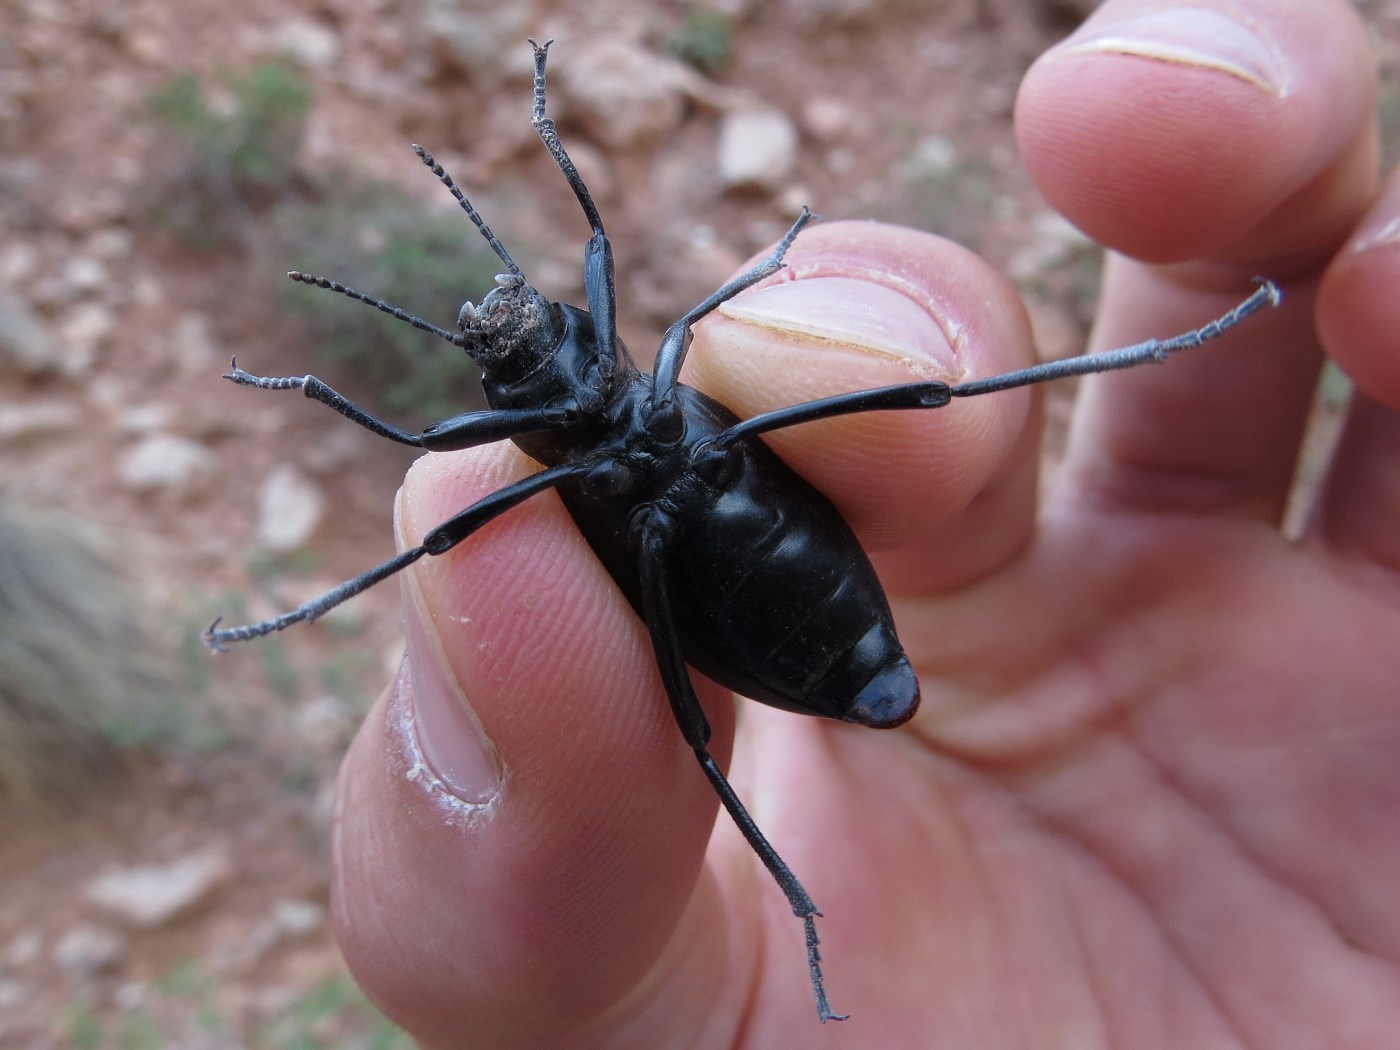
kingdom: Animalia
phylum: Arthropoda
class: Insecta
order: Coleoptera
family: Tenebrionidae
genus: Eleodes
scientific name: Eleodes longicollis
